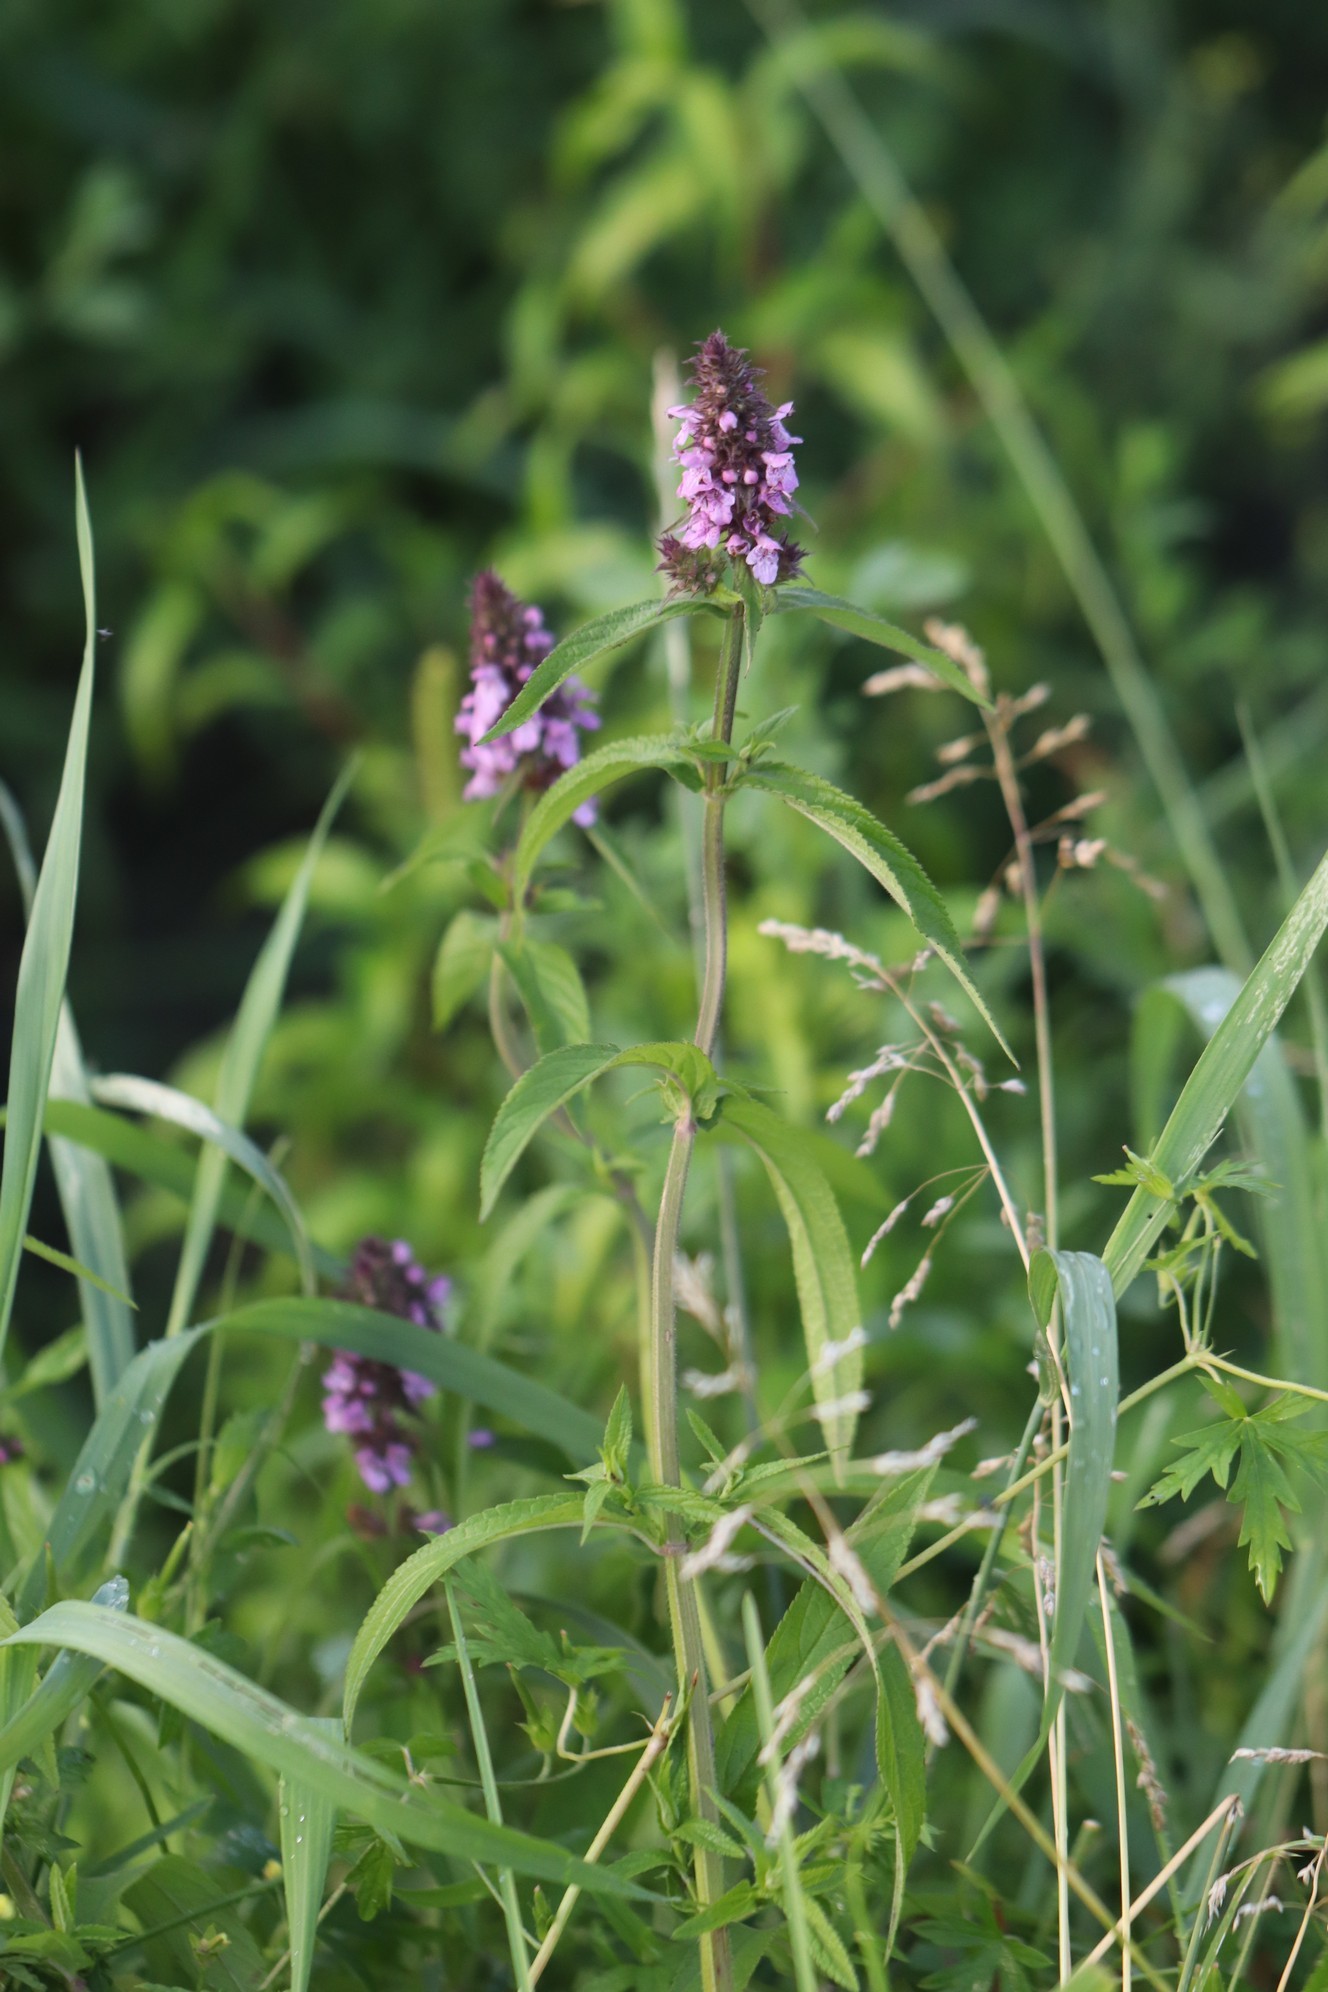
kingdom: Plantae
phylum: Tracheophyta
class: Magnoliopsida
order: Lamiales
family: Lamiaceae
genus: Stachys
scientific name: Stachys palustris
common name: Marsh woundwort
